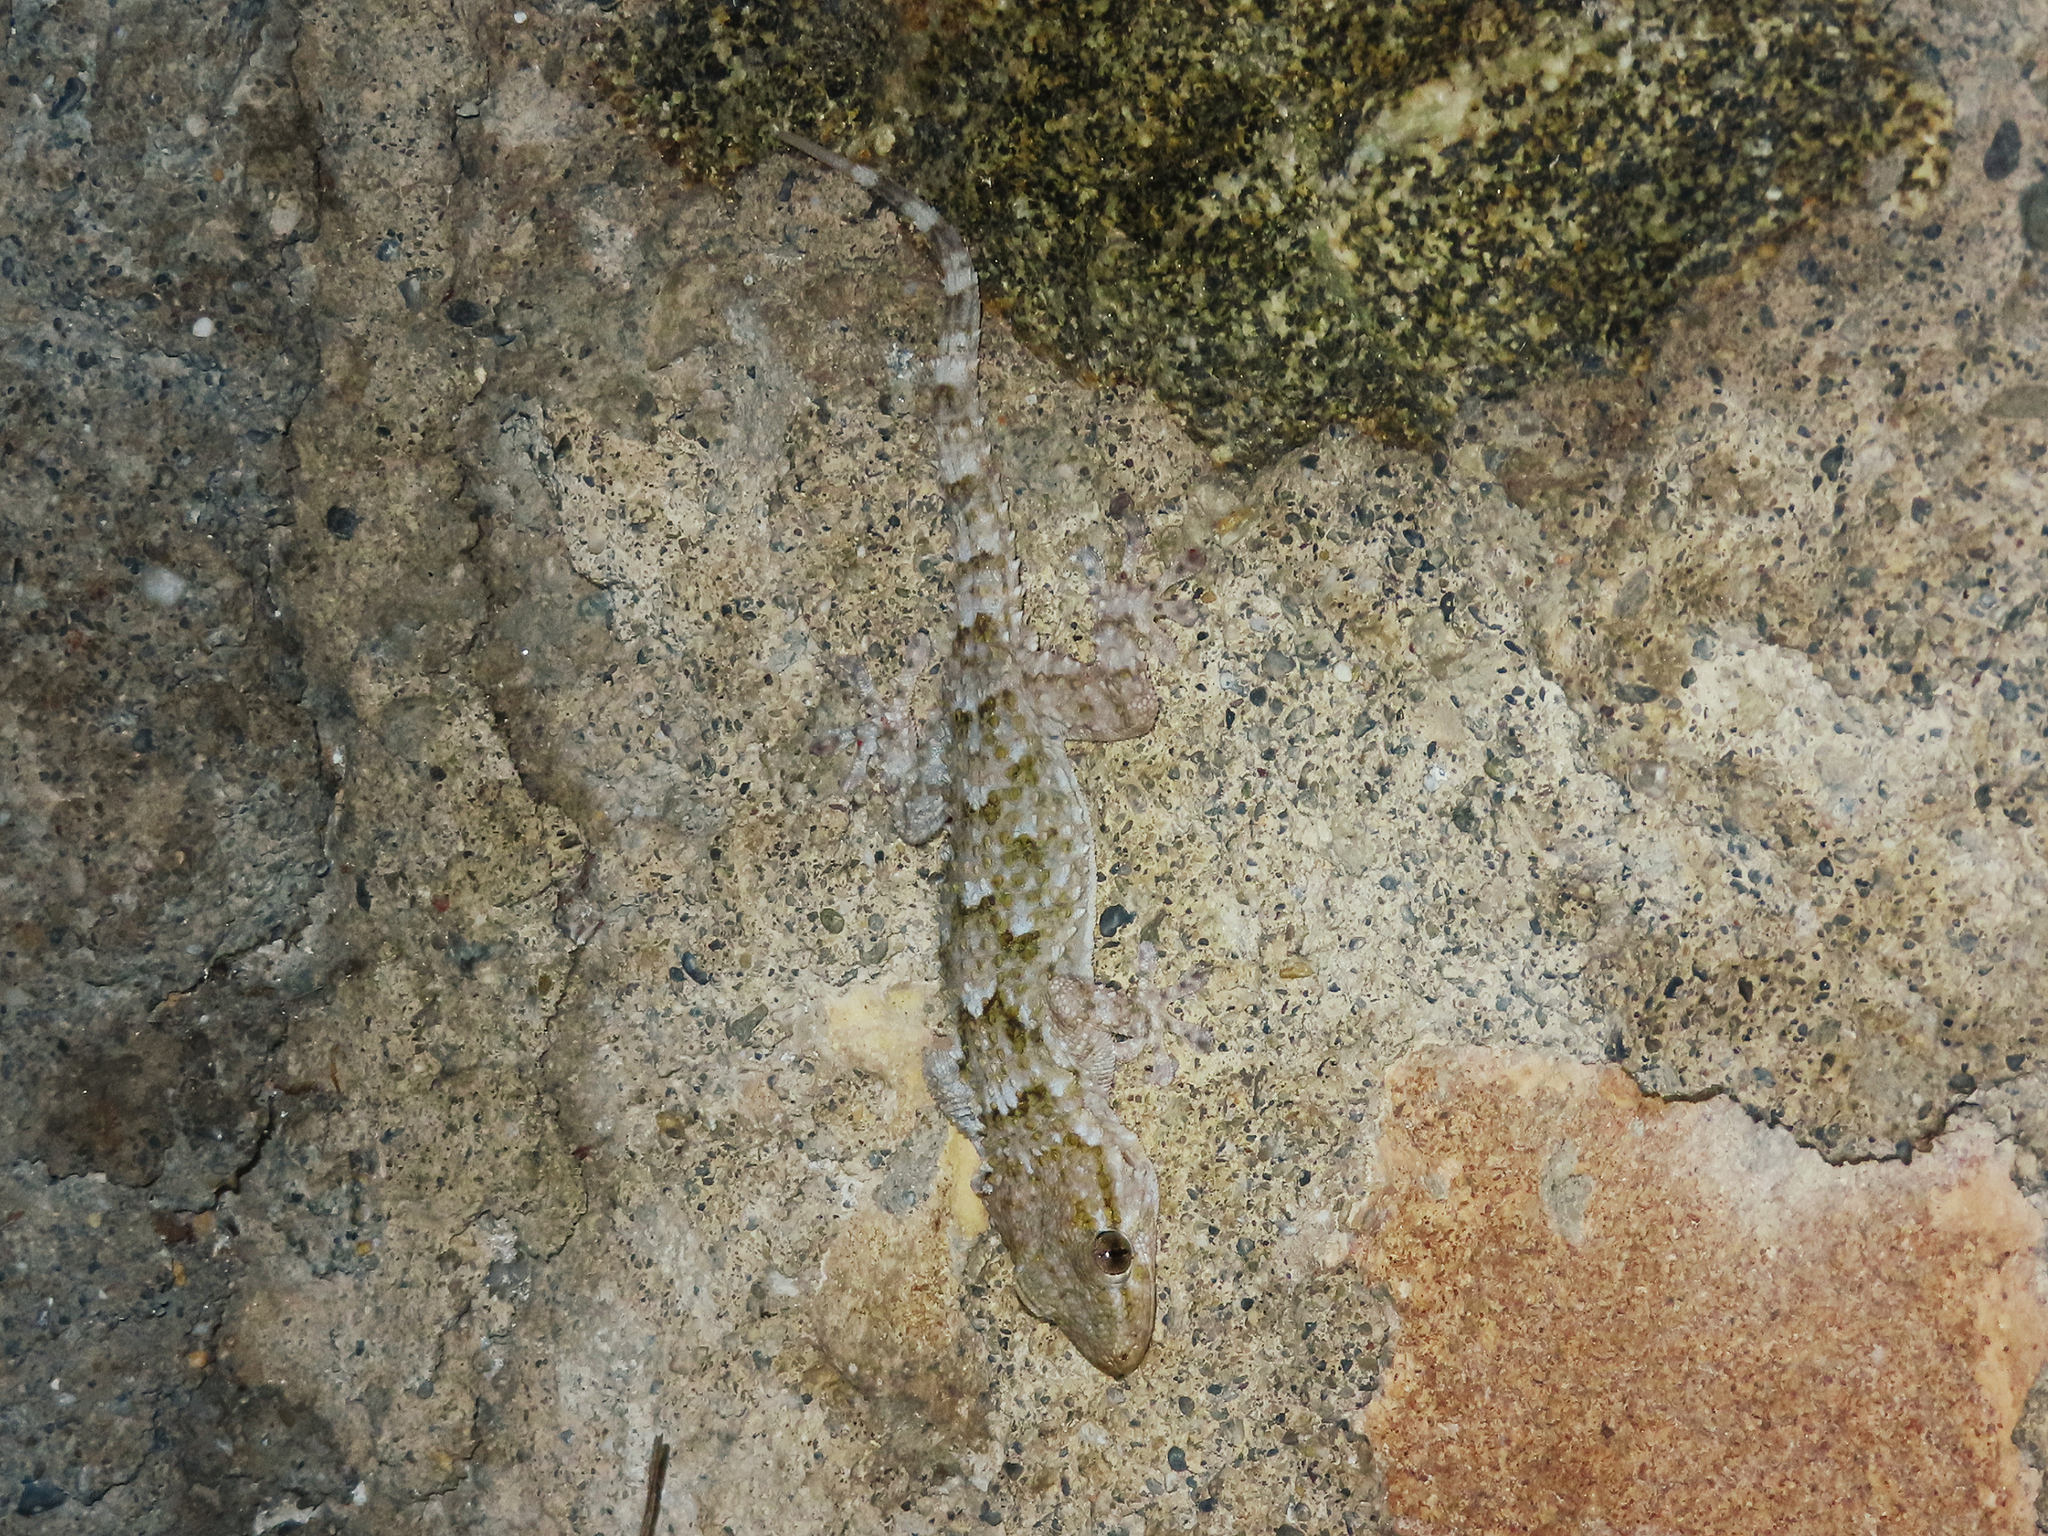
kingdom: Animalia
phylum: Chordata
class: Squamata
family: Phyllodactylidae
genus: Tarentola
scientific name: Tarentola mauritanica
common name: Moorish gecko
